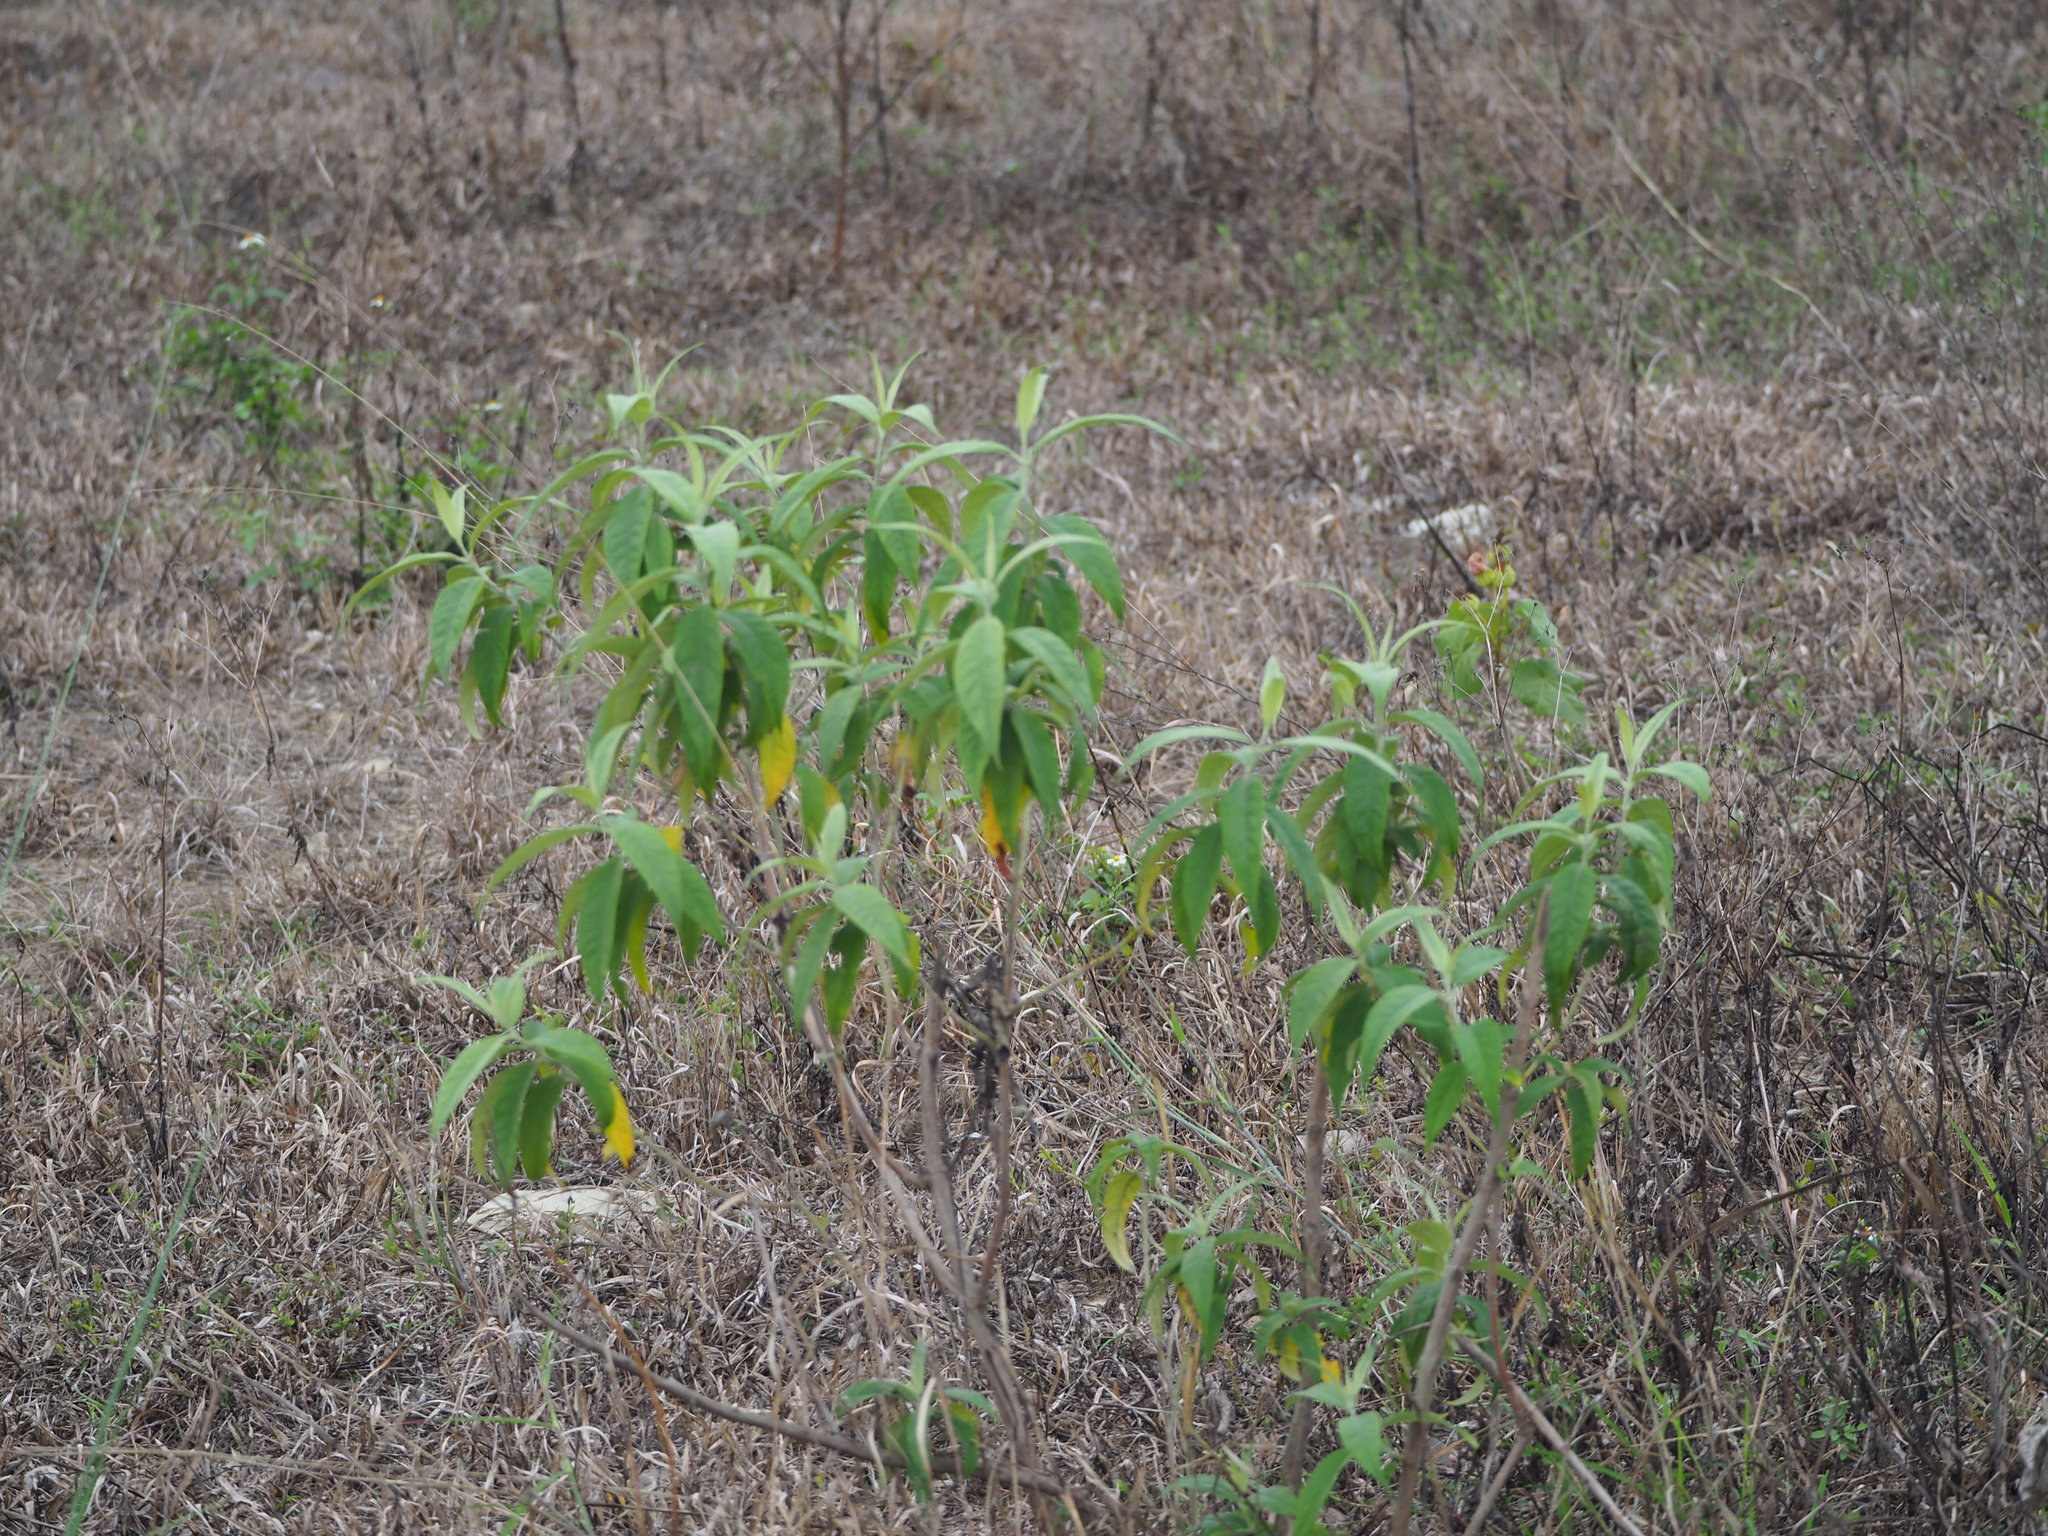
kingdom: Plantae
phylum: Tracheophyta
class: Magnoliopsida
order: Lamiales
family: Scrophulariaceae
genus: Buddleja
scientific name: Buddleja asiatica
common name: Dog tail
